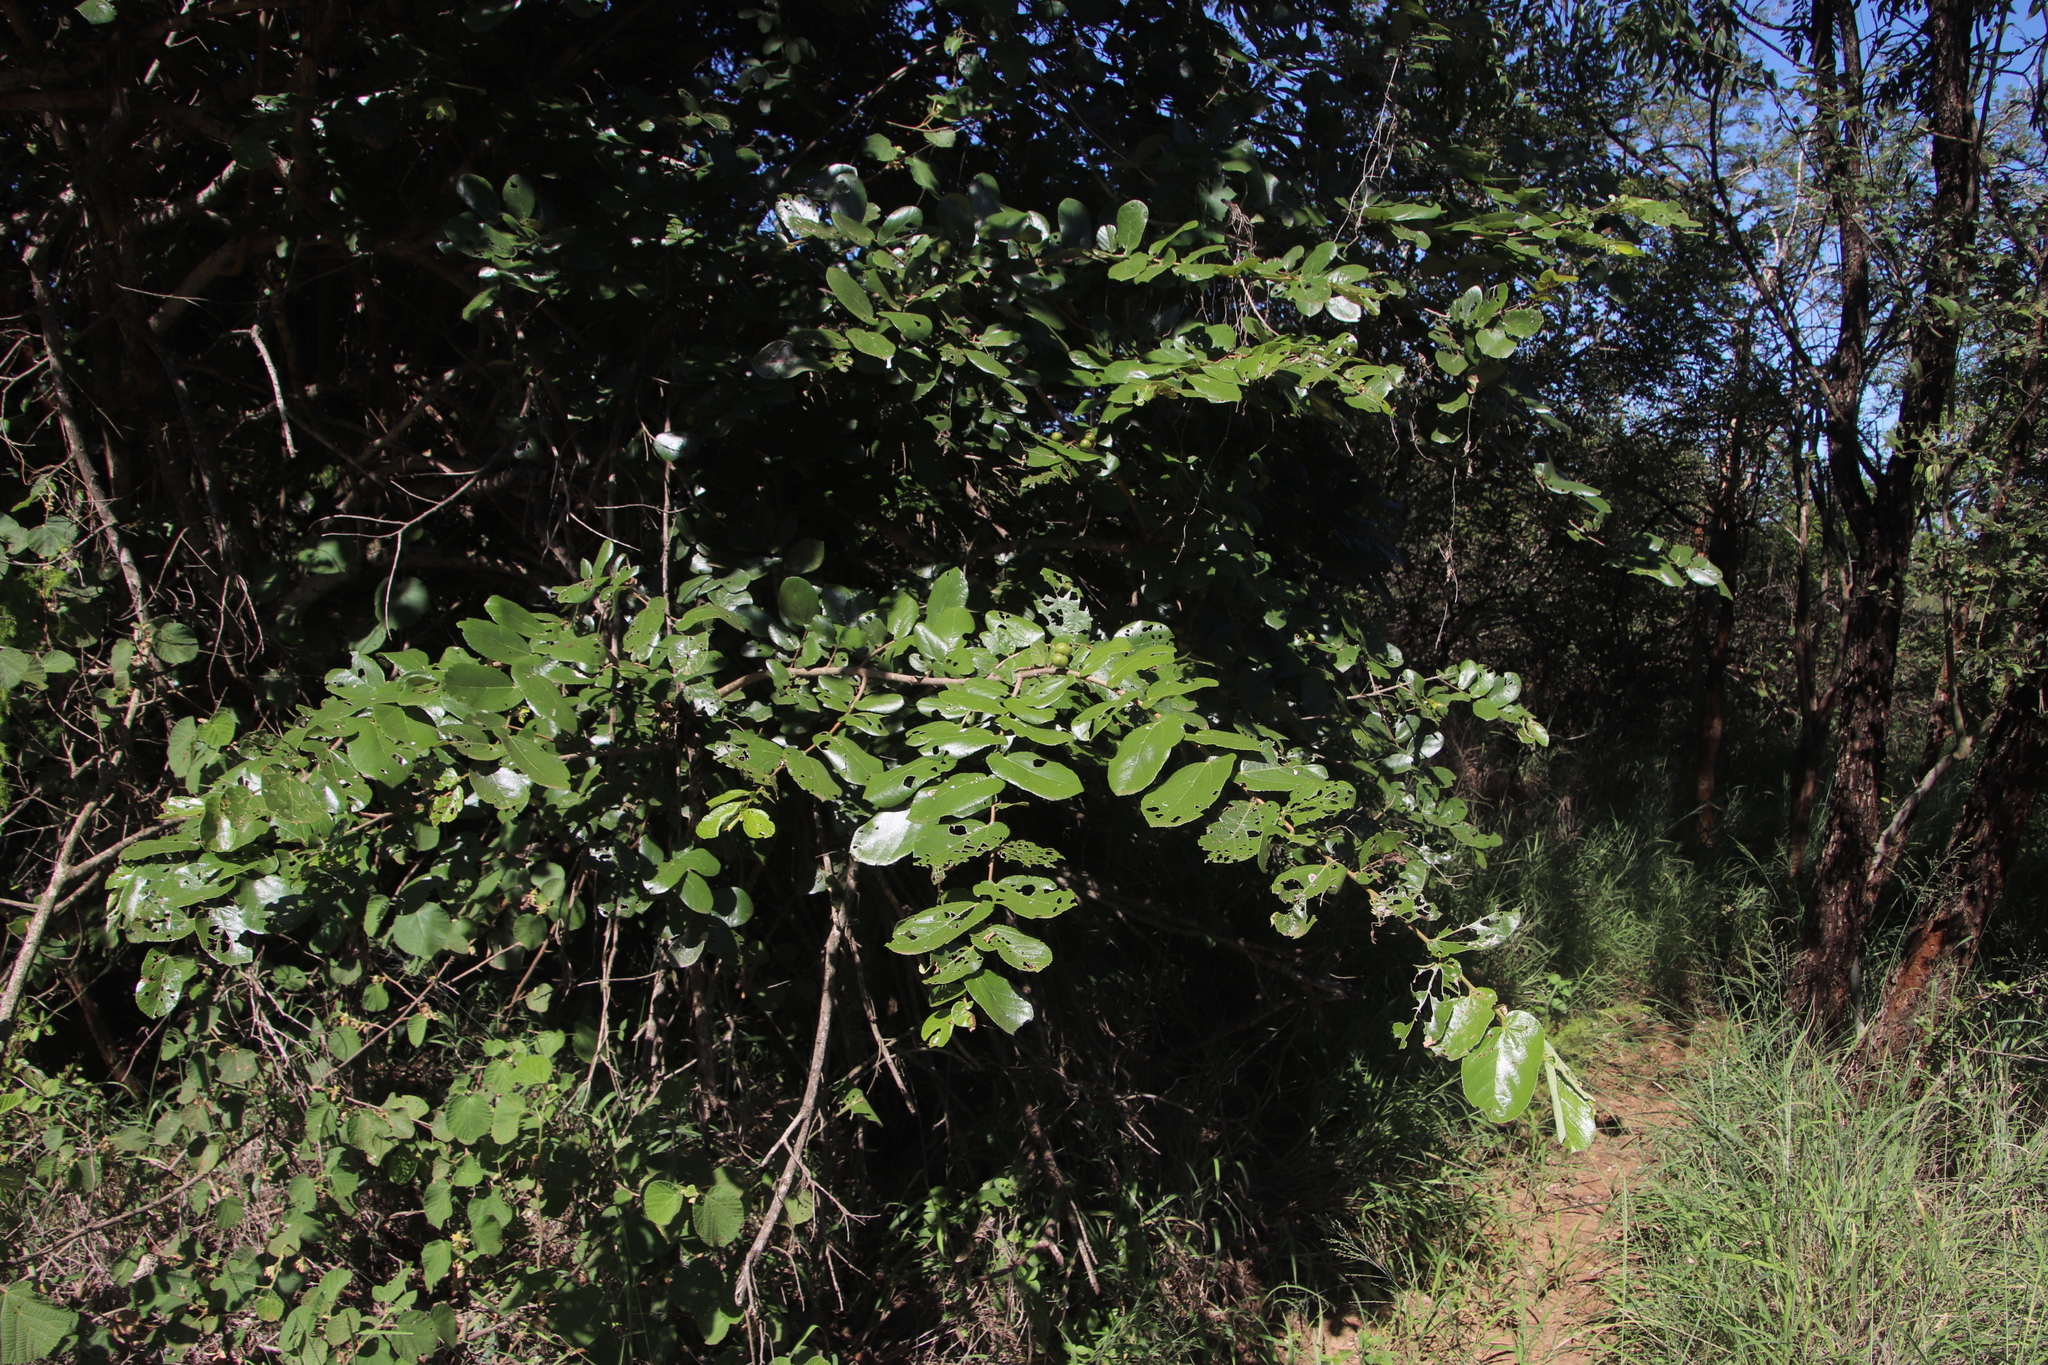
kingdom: Plantae
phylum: Tracheophyta
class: Magnoliopsida
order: Malvales
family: Malvaceae
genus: Grewia
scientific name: Grewia hexamita
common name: Giant raisin
